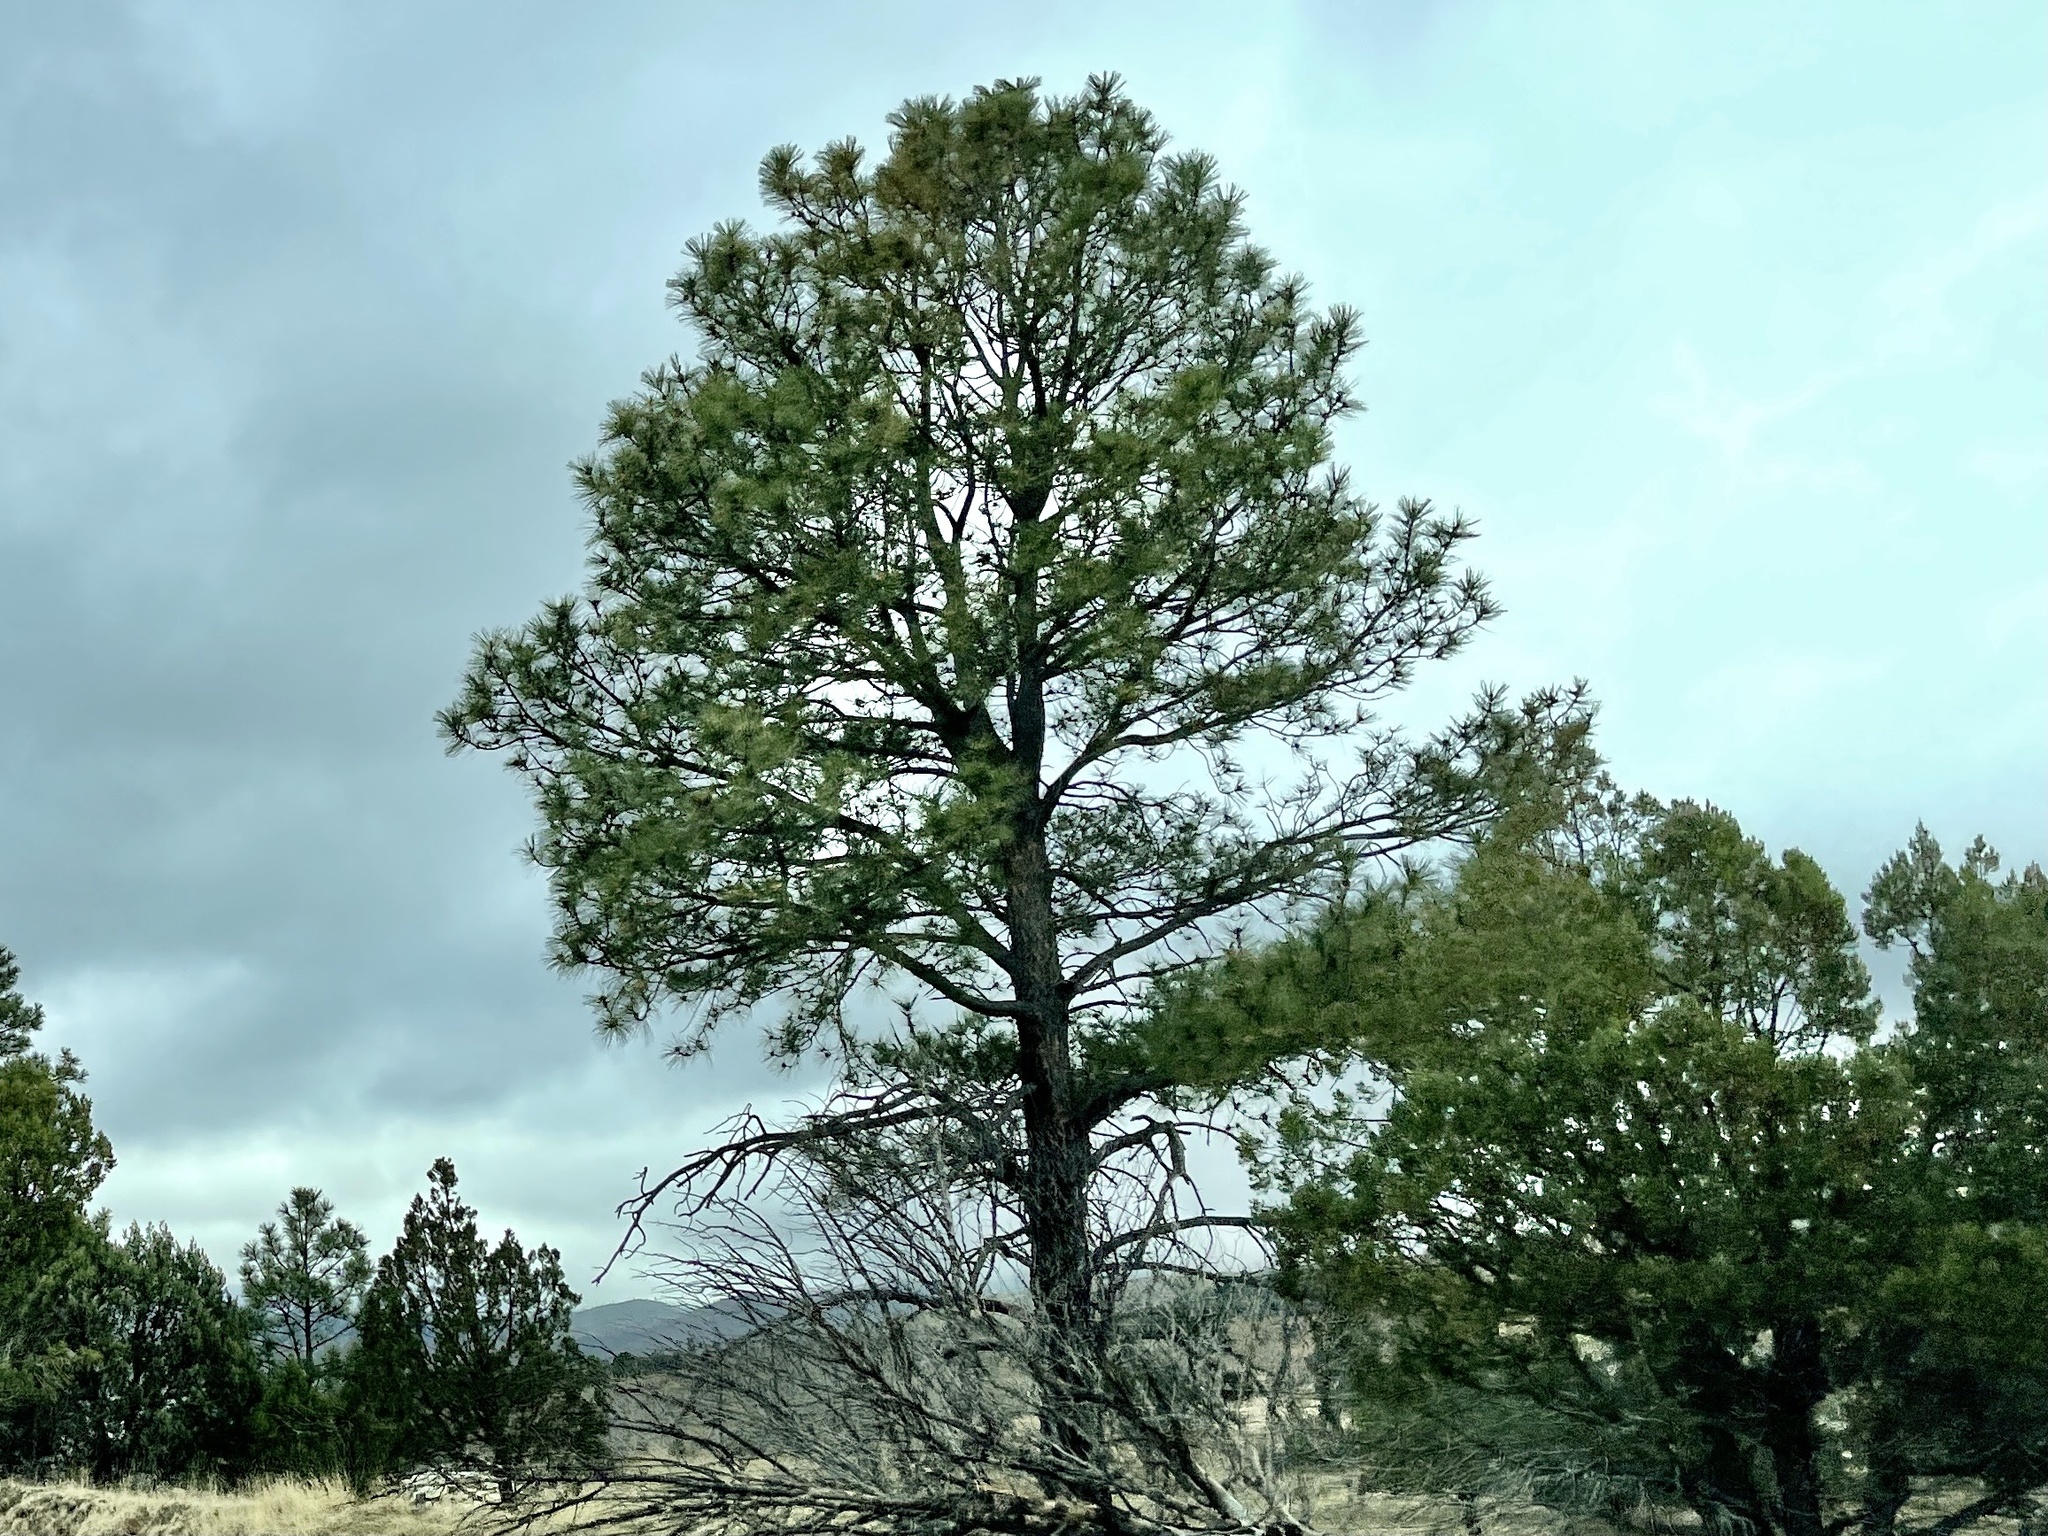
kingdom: Plantae
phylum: Tracheophyta
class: Pinopsida
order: Pinales
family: Pinaceae
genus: Pinus
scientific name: Pinus ponderosa
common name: Western yellow-pine
